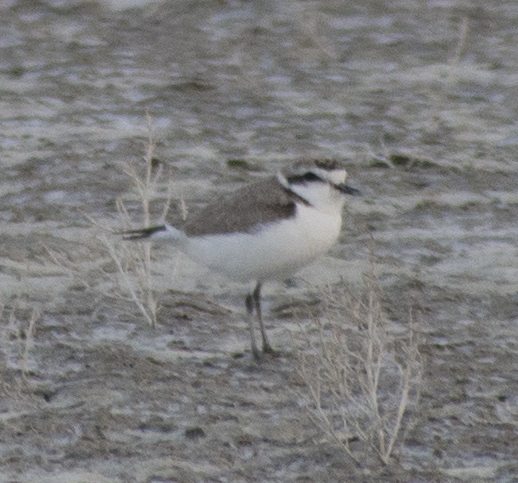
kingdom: Animalia
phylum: Chordata
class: Aves
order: Charadriiformes
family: Charadriidae
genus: Anarhynchus
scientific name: Anarhynchus
